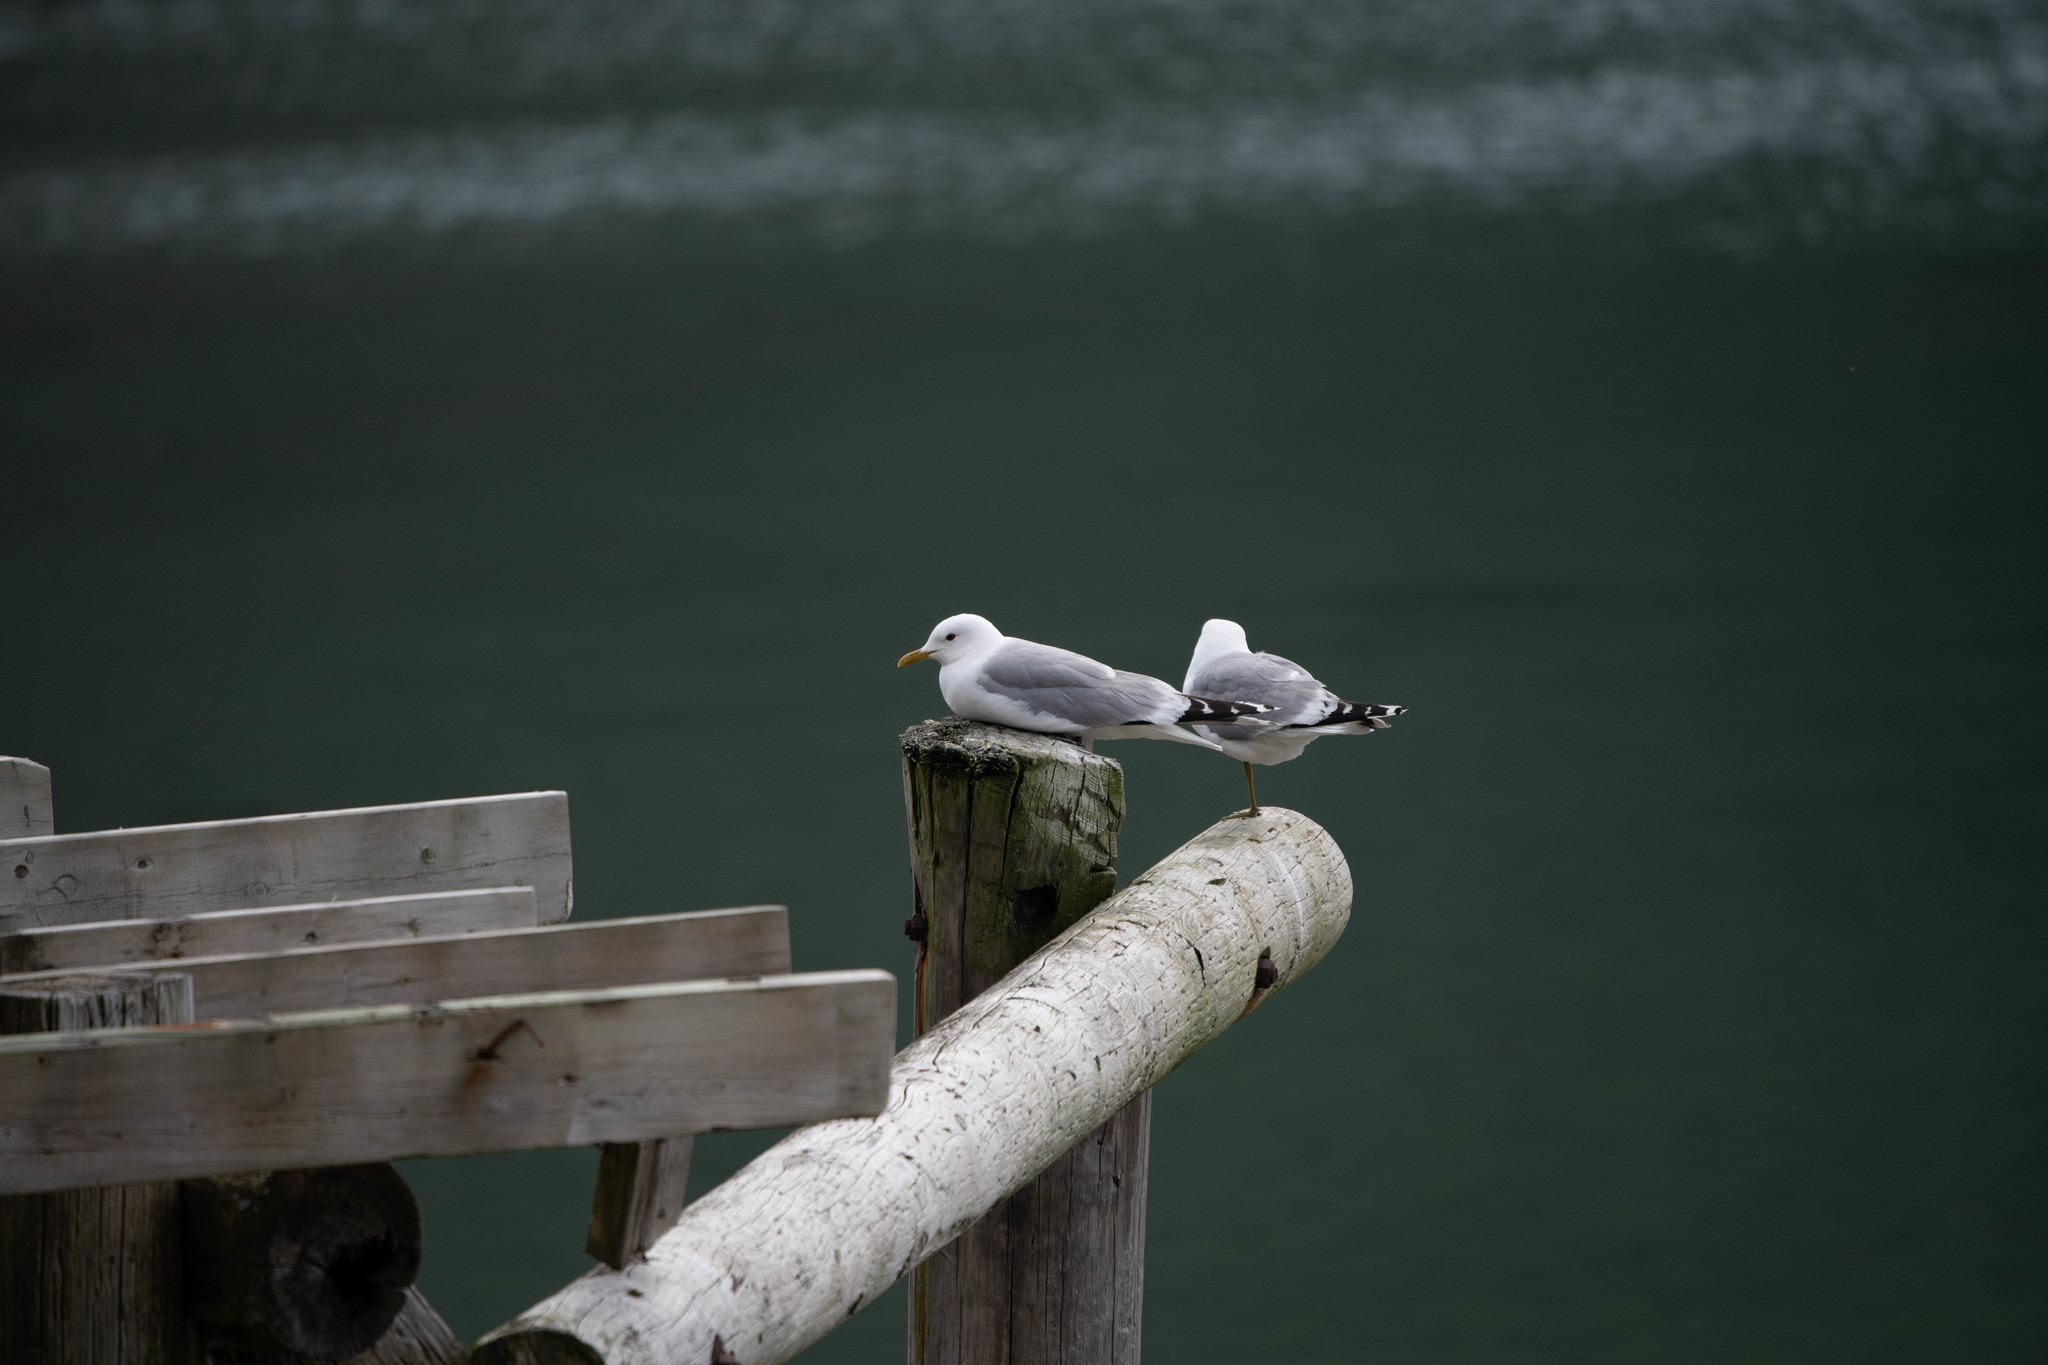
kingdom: Animalia
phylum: Chordata
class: Aves
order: Charadriiformes
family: Laridae
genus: Larus
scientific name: Larus canus
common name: Mew gull
